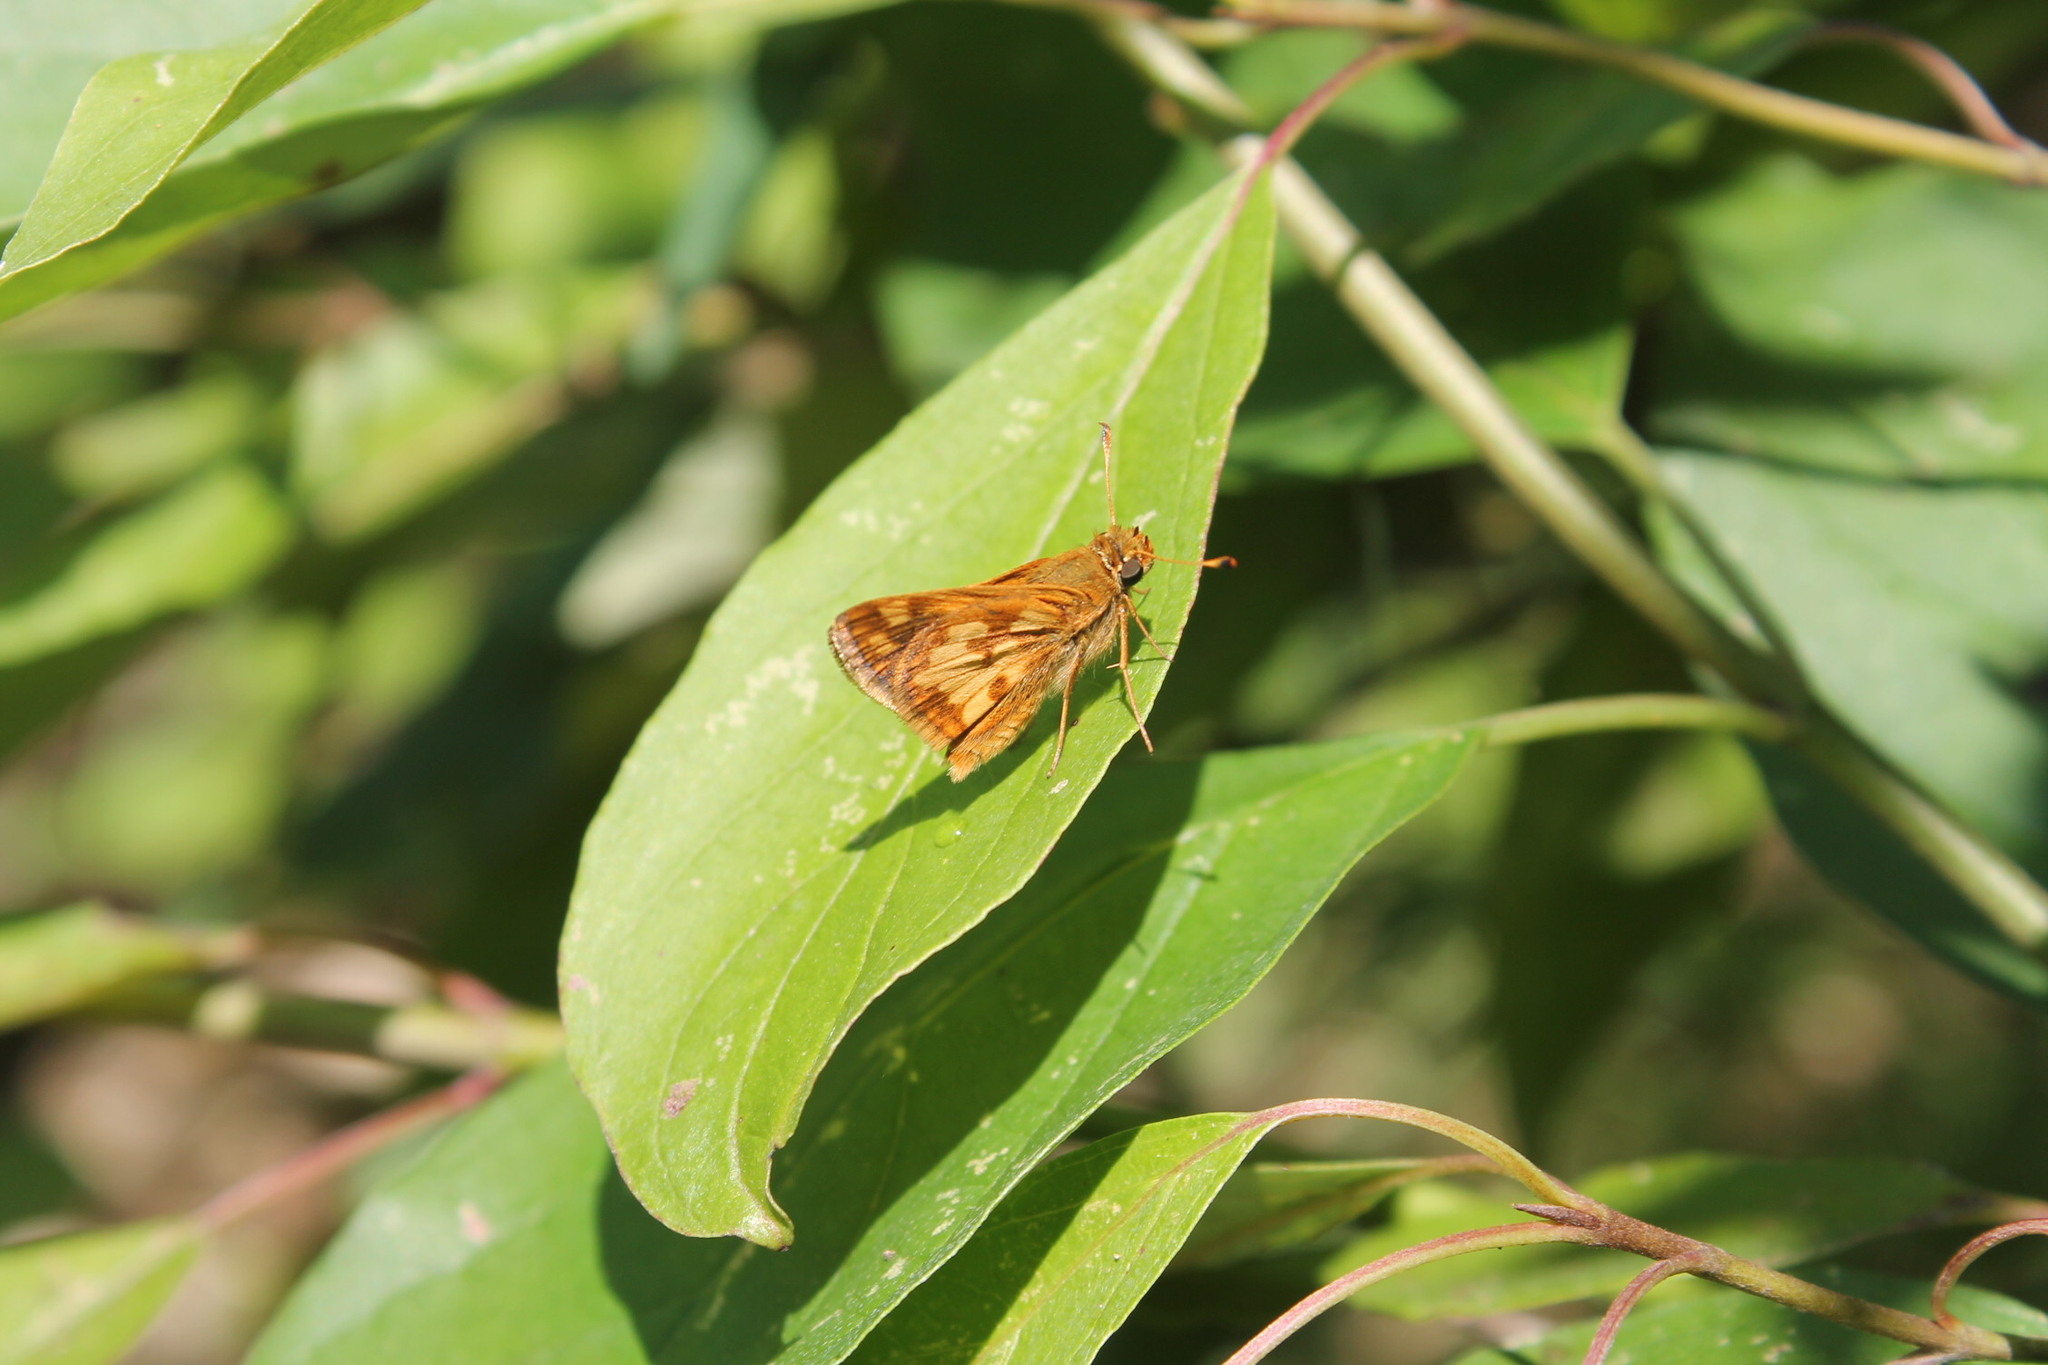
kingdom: Animalia
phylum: Arthropoda
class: Insecta
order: Lepidoptera
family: Hesperiidae
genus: Polites
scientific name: Polites coras
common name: Peck's skipper
